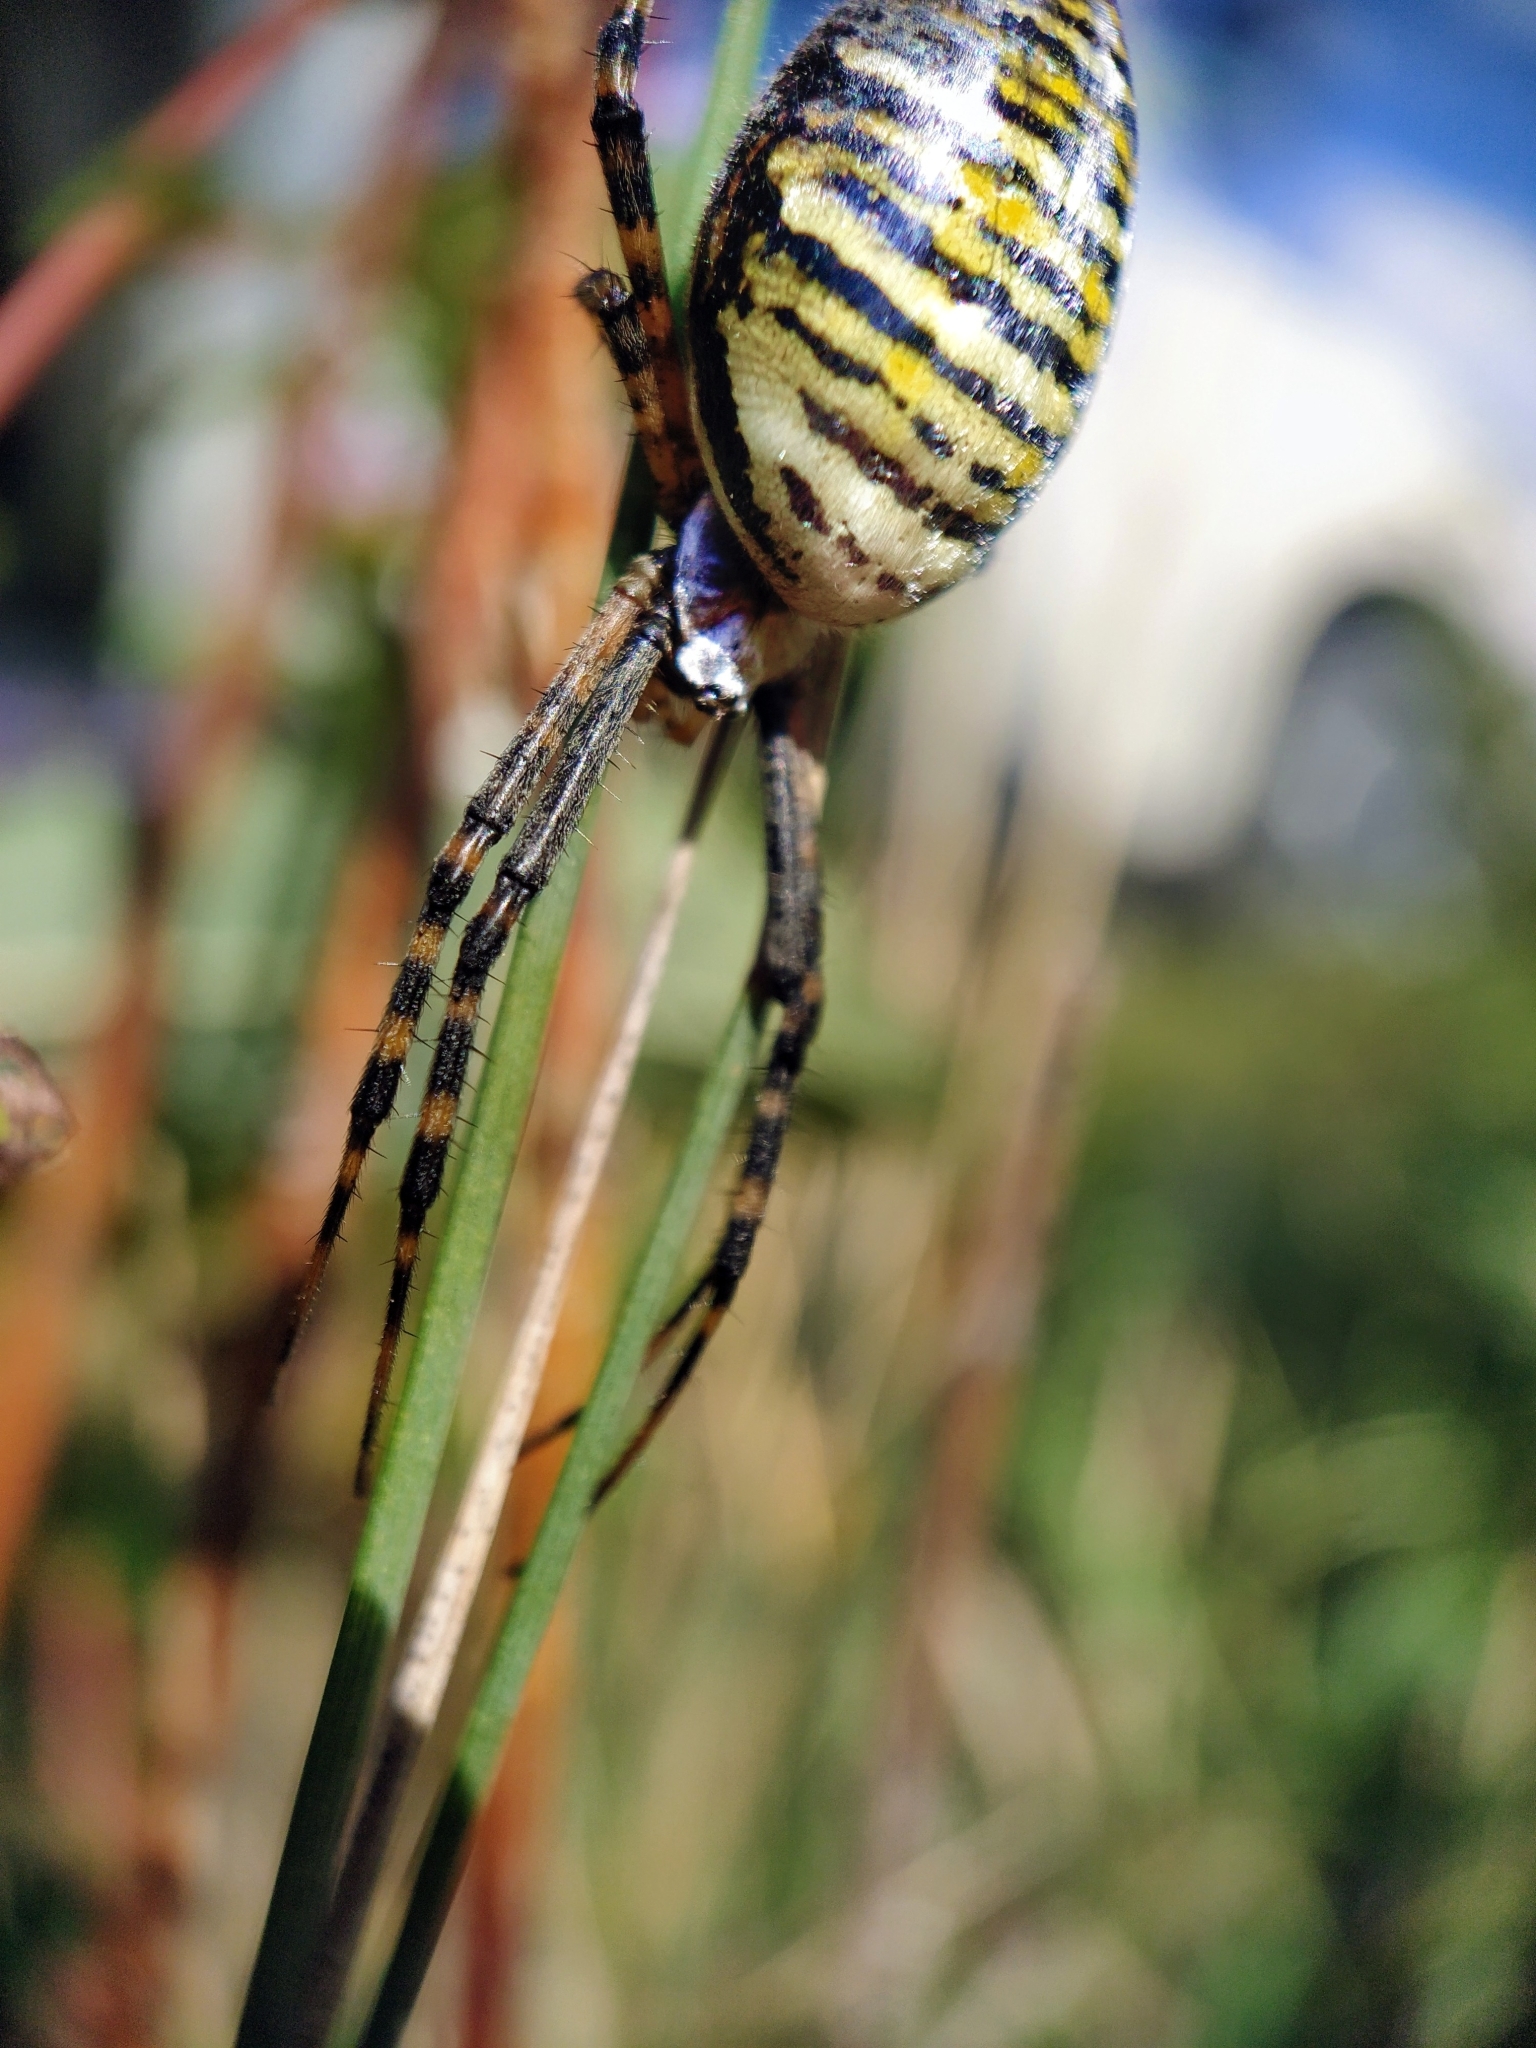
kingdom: Animalia
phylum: Arthropoda
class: Arachnida
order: Araneae
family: Araneidae
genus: Argiope
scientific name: Argiope trifasciata
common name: Banded garden spider
